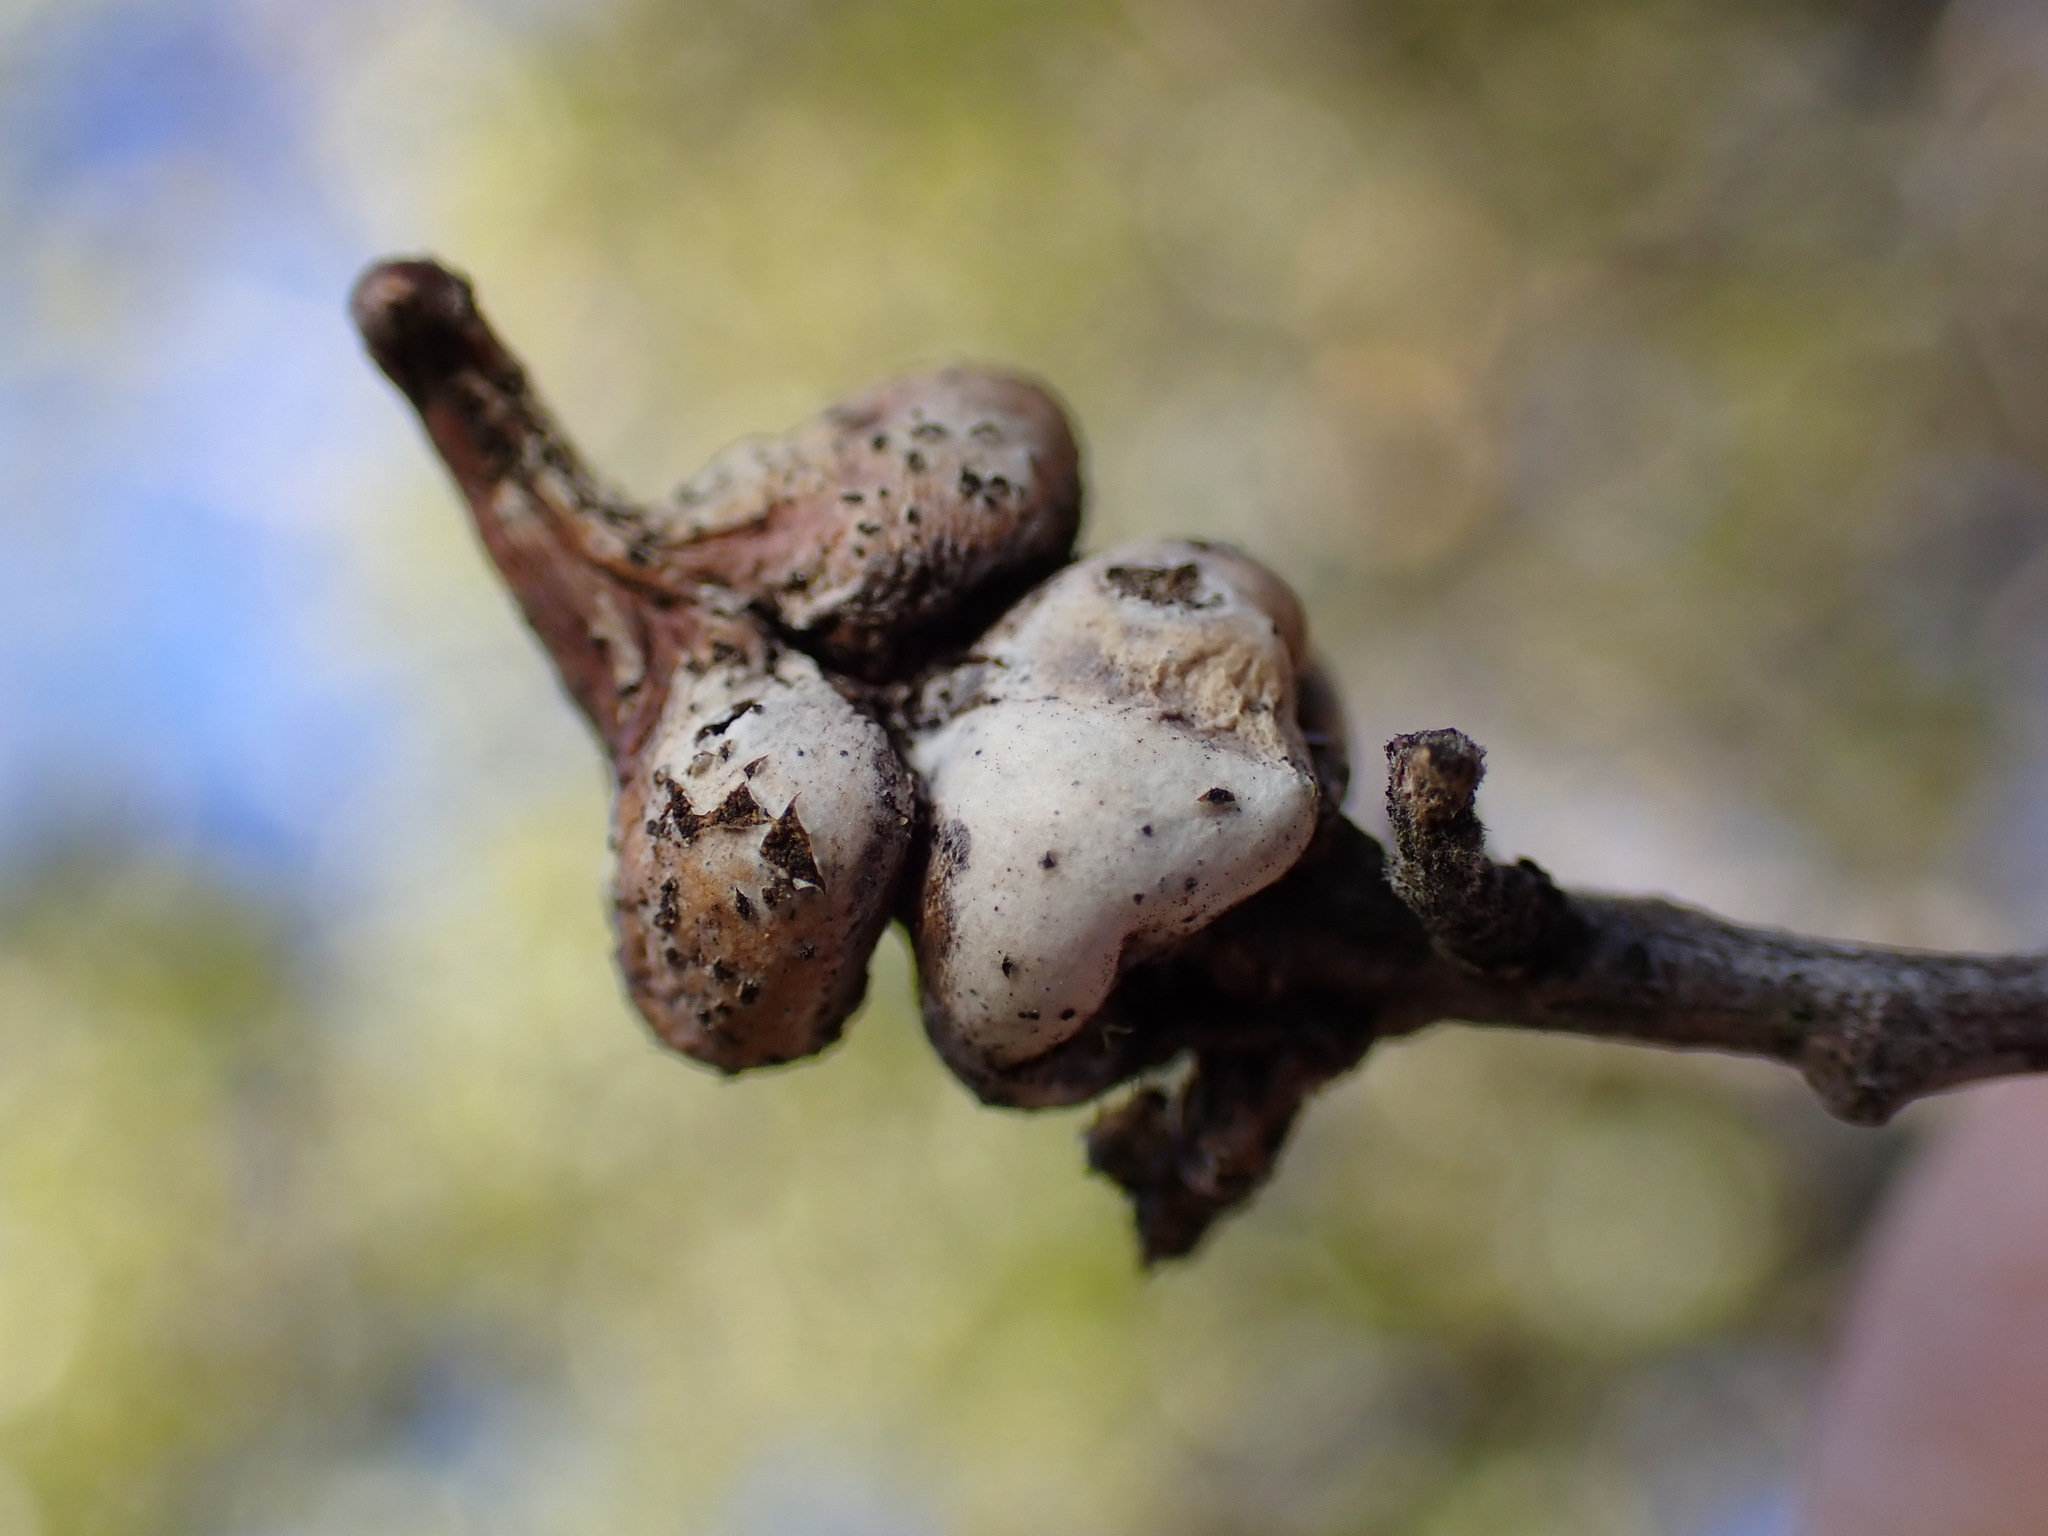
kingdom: Animalia
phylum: Arthropoda
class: Insecta
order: Hymenoptera
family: Cynipidae
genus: Heteroecus
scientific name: Heteroecus
